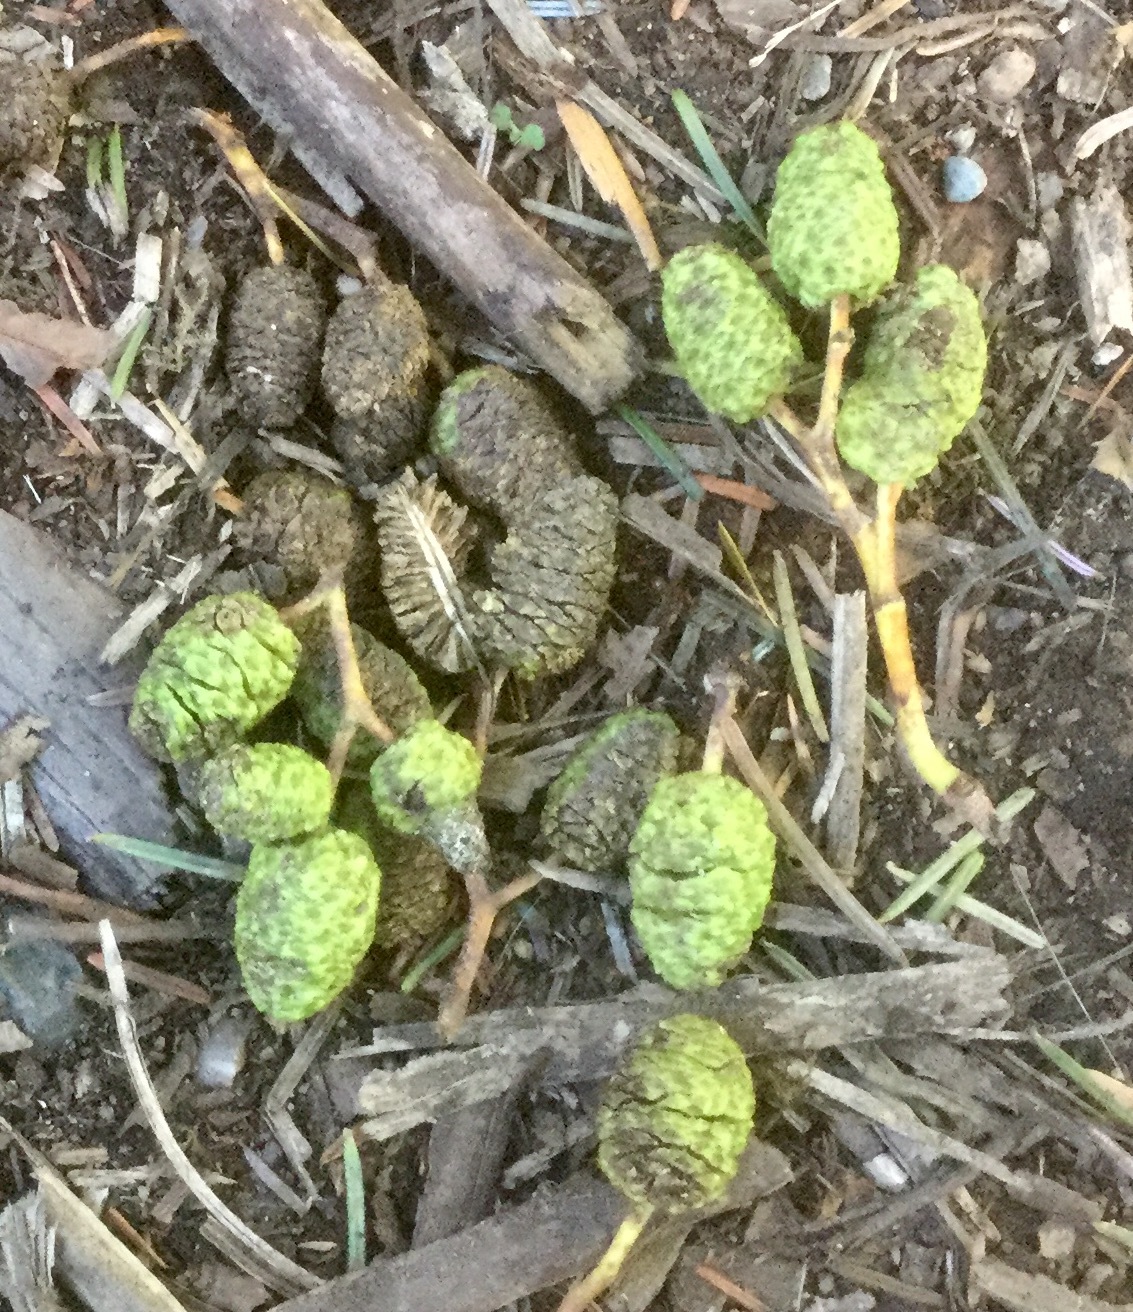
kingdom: Plantae
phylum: Tracheophyta
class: Magnoliopsida
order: Fagales
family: Betulaceae
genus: Alnus
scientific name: Alnus rubra
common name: Red alder
